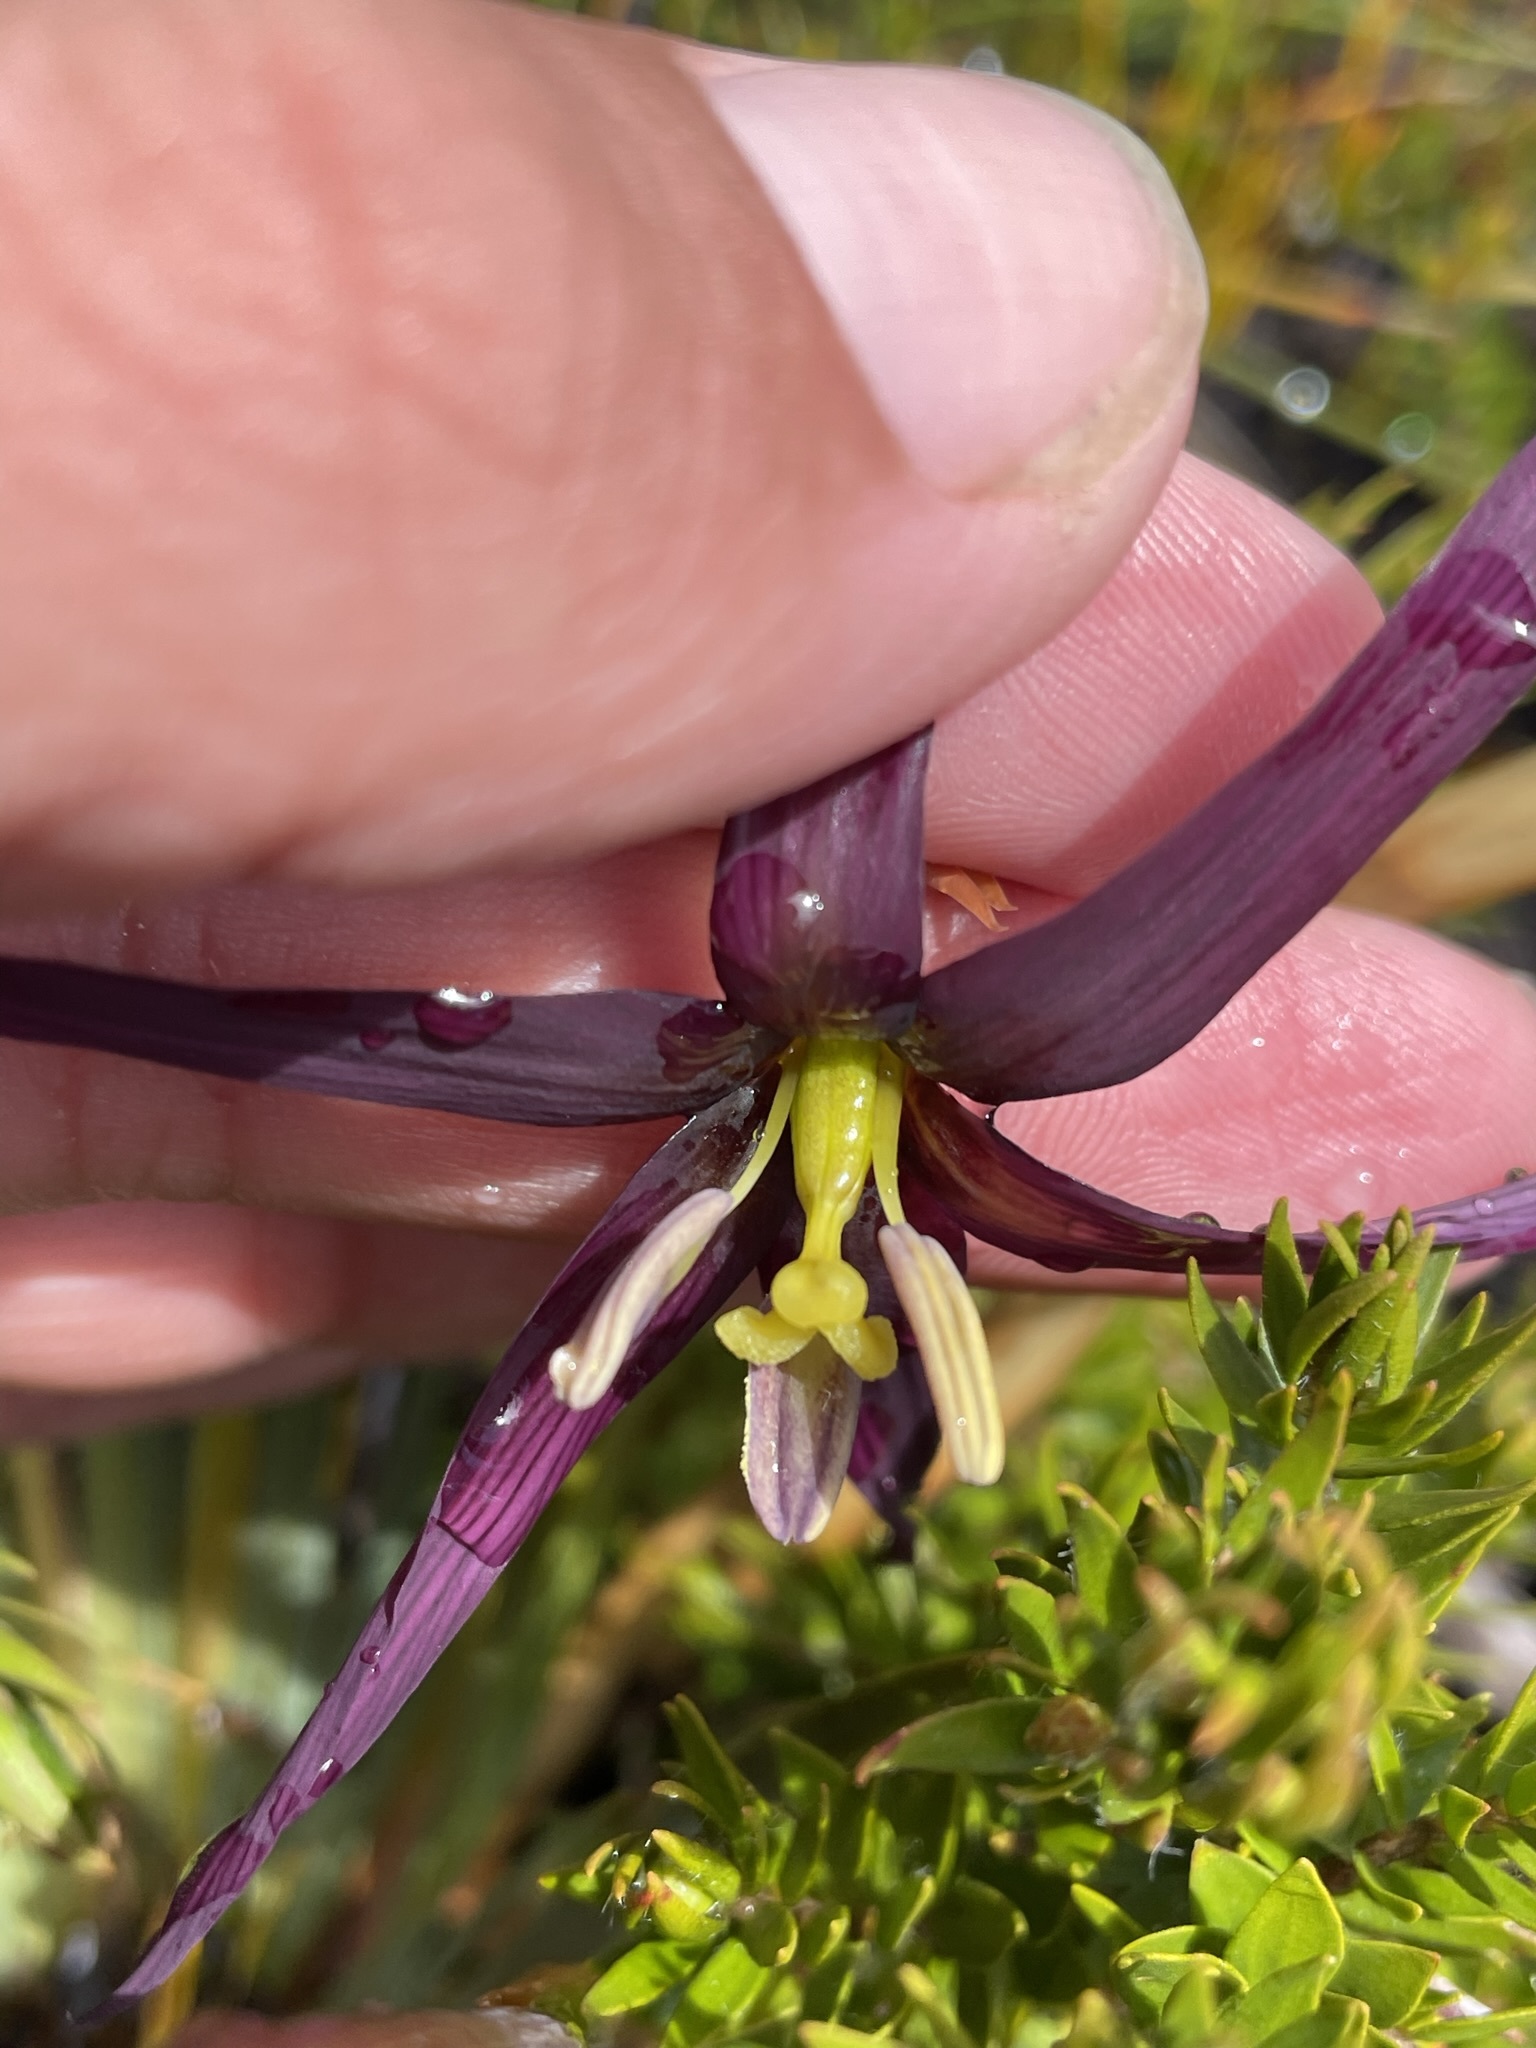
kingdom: Plantae
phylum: Tracheophyta
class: Liliopsida
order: Asparagales
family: Iridaceae
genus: Isophysis
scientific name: Isophysis tasmanica
